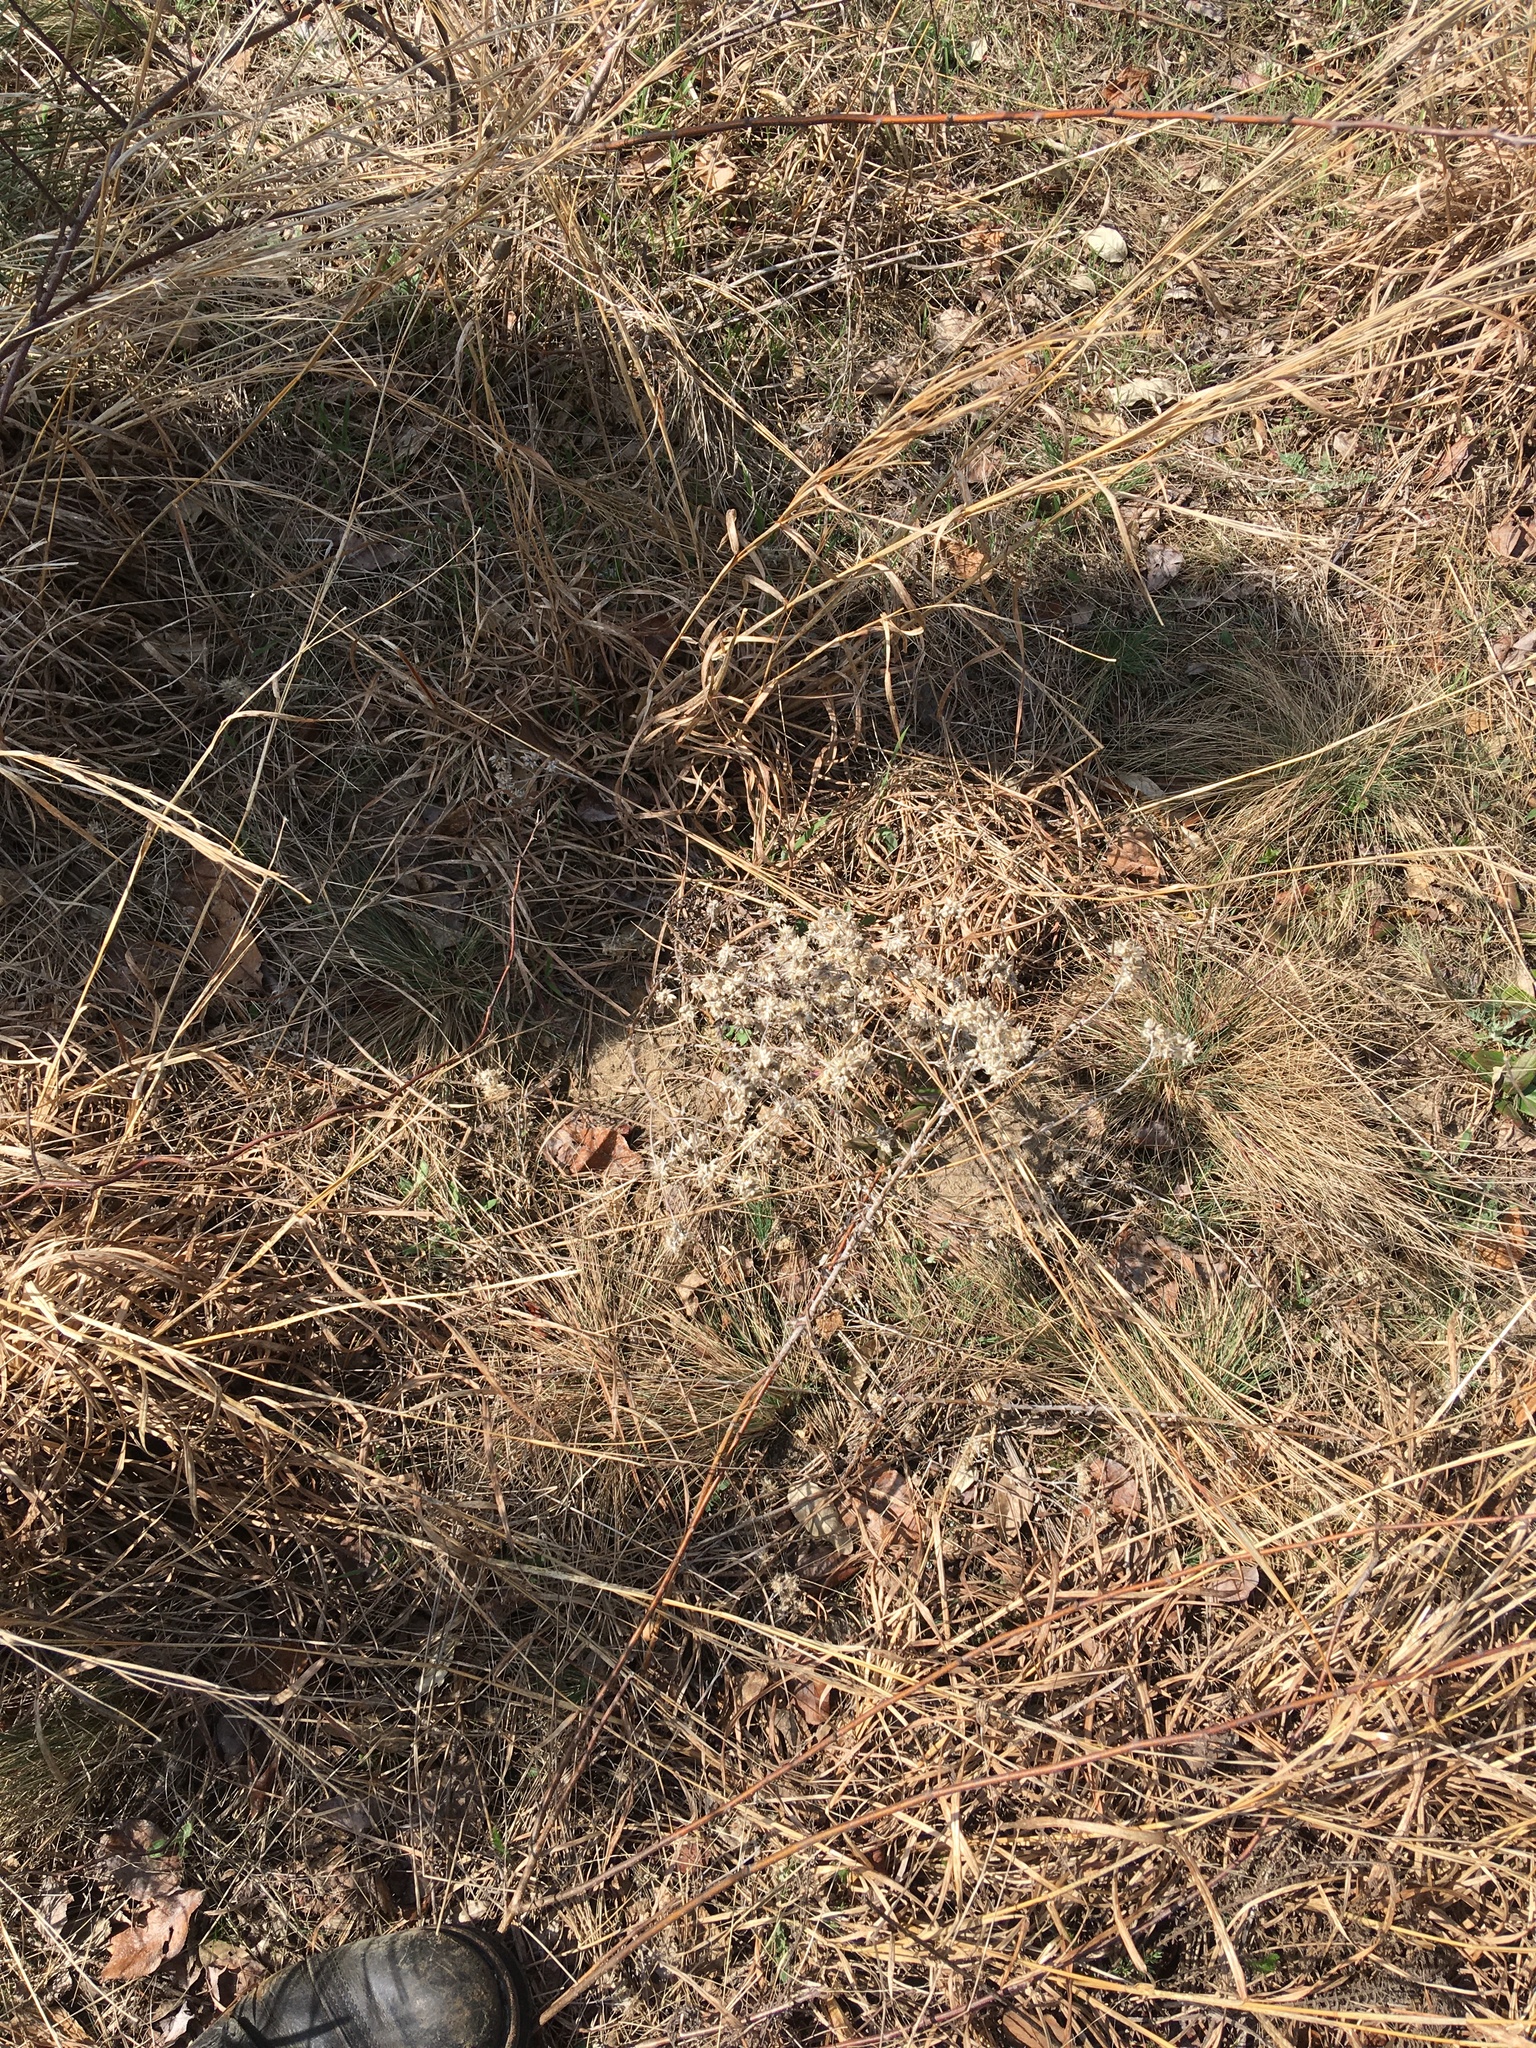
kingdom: Plantae
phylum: Tracheophyta
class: Magnoliopsida
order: Asterales
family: Asteraceae
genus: Pseudognaphalium
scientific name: Pseudognaphalium obtusifolium
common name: Eastern rabbit-tobacco
